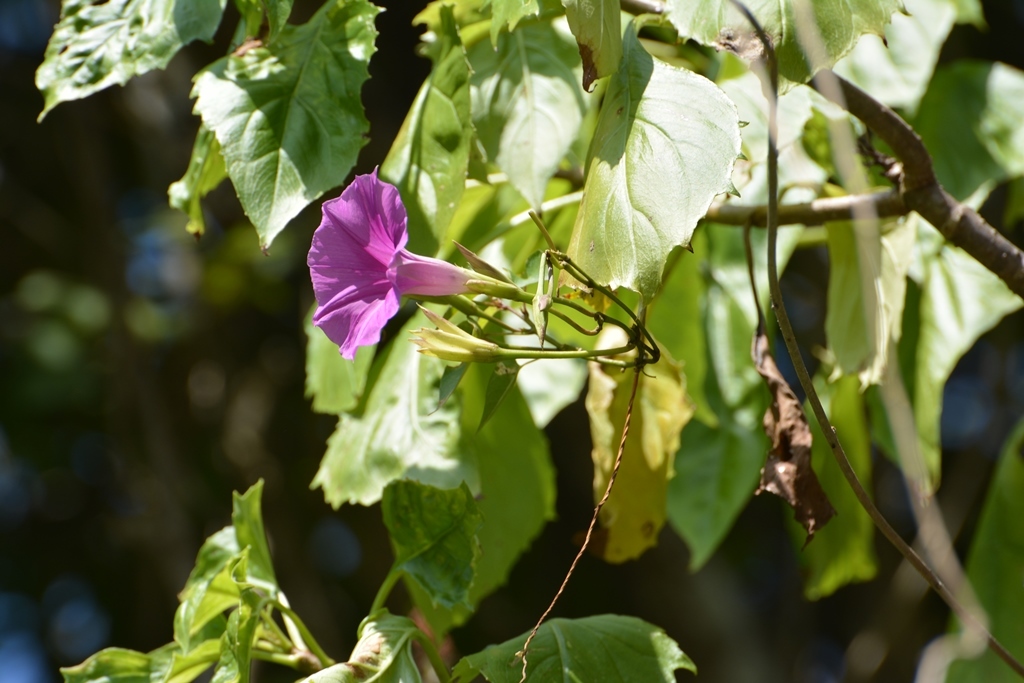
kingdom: Plantae
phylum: Tracheophyta
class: Magnoliopsida
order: Solanales
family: Convolvulaceae
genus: Ipomoea
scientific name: Ipomoea bernoulliana
